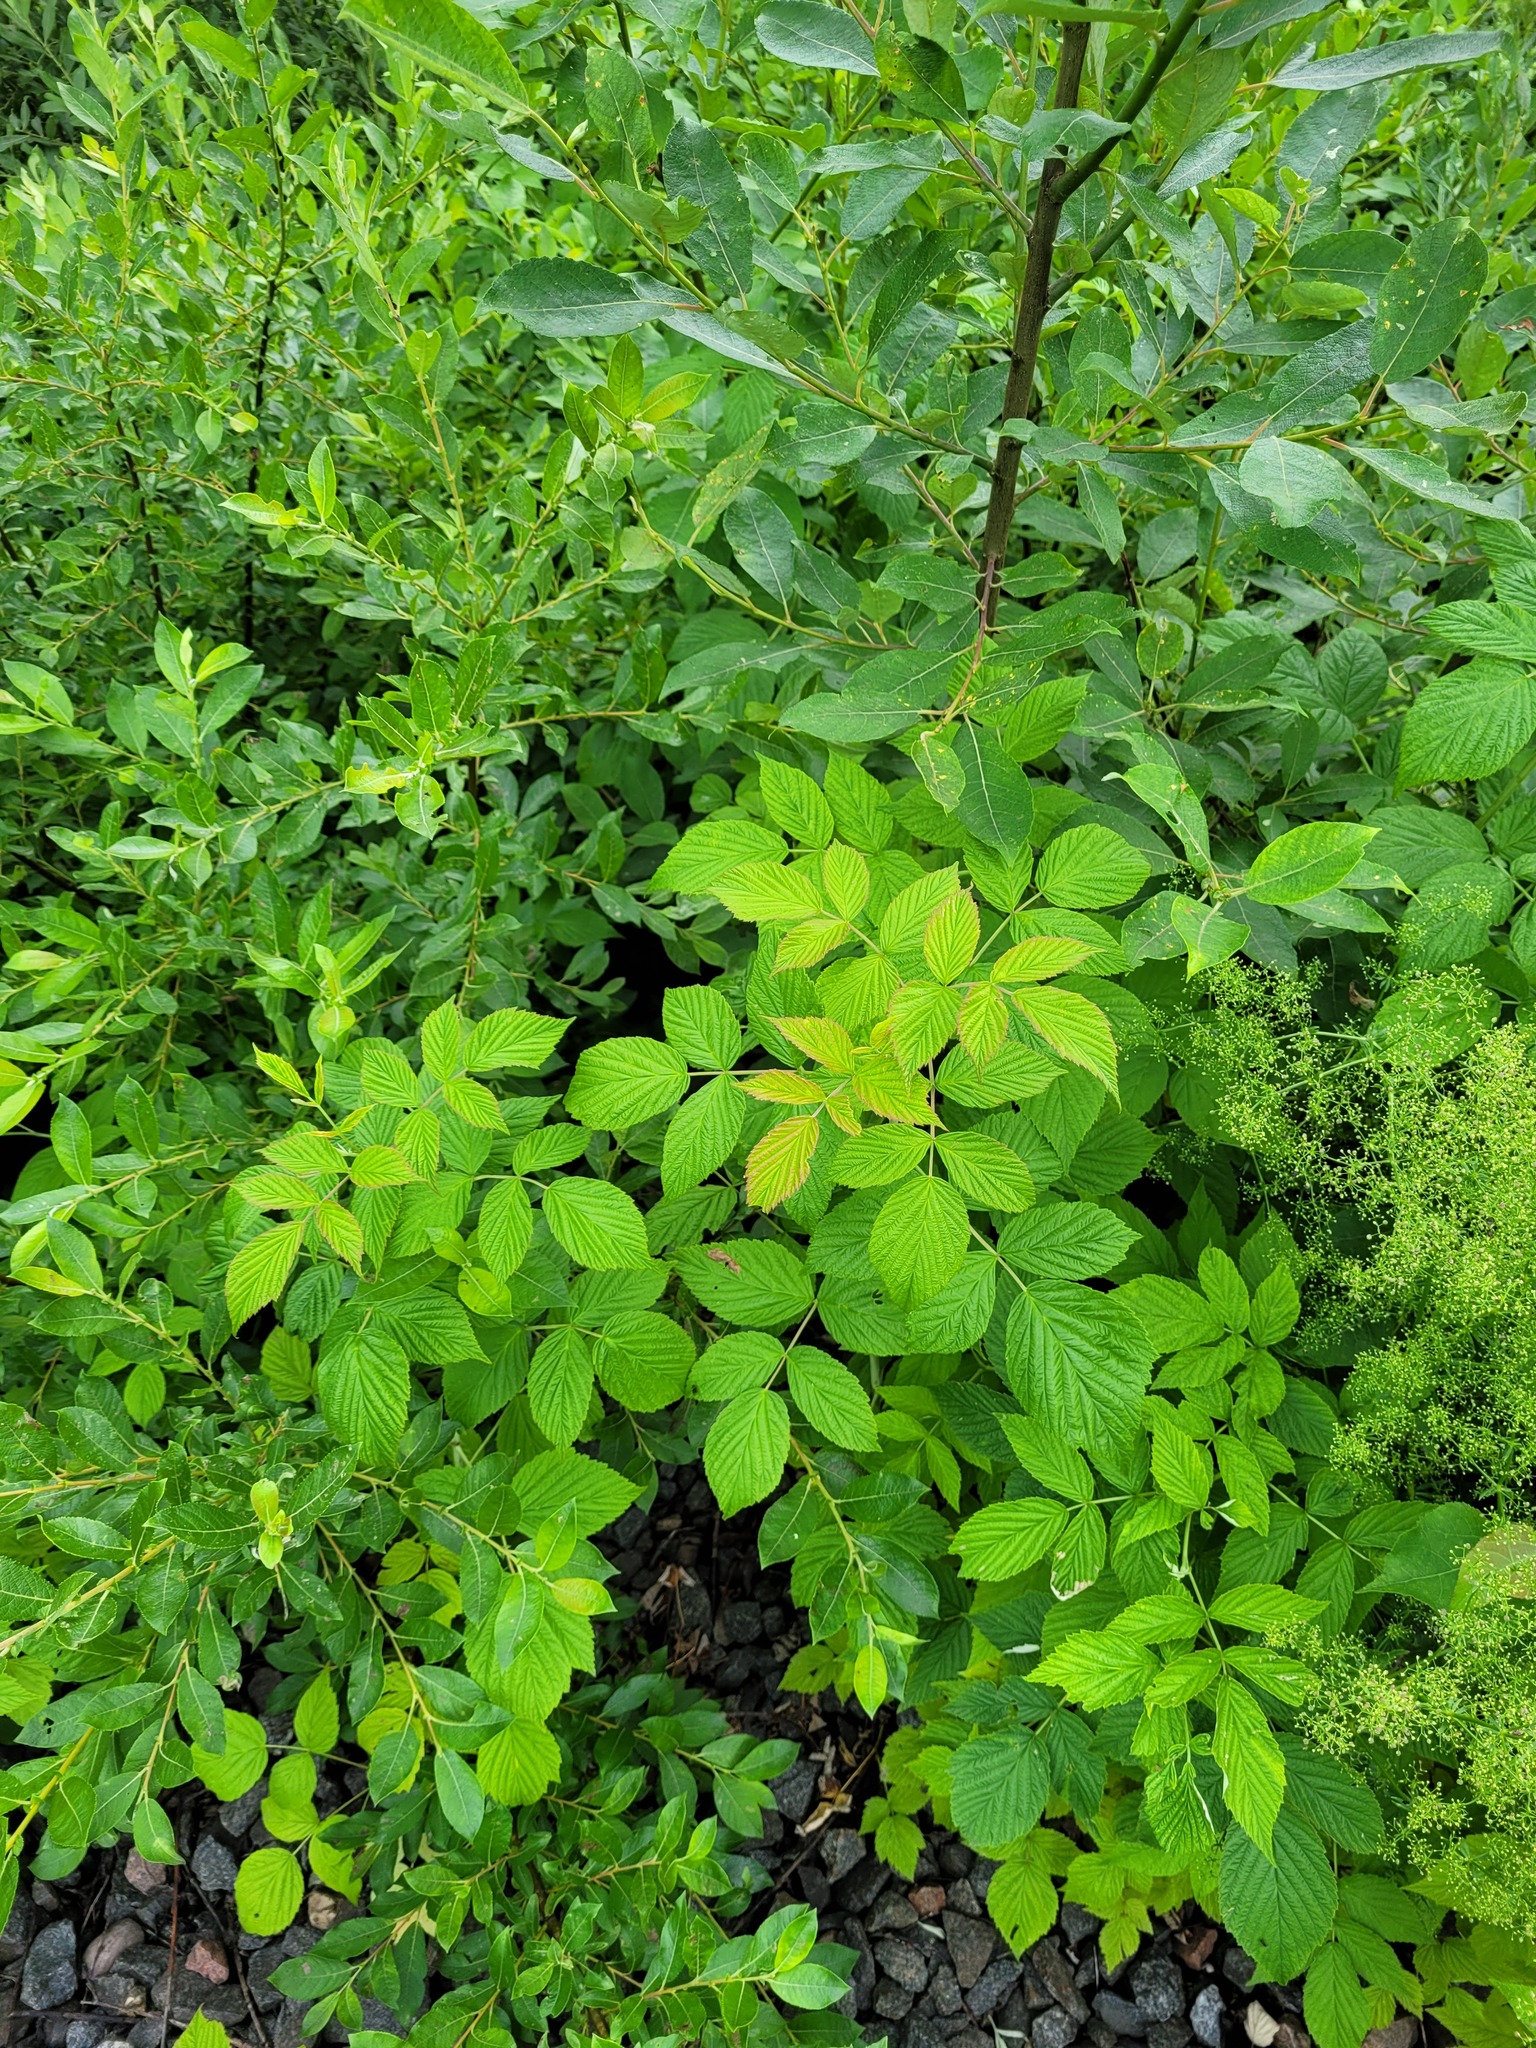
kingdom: Plantae
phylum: Tracheophyta
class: Magnoliopsida
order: Rosales
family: Rosaceae
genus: Rubus
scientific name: Rubus idaeus
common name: Raspberry
